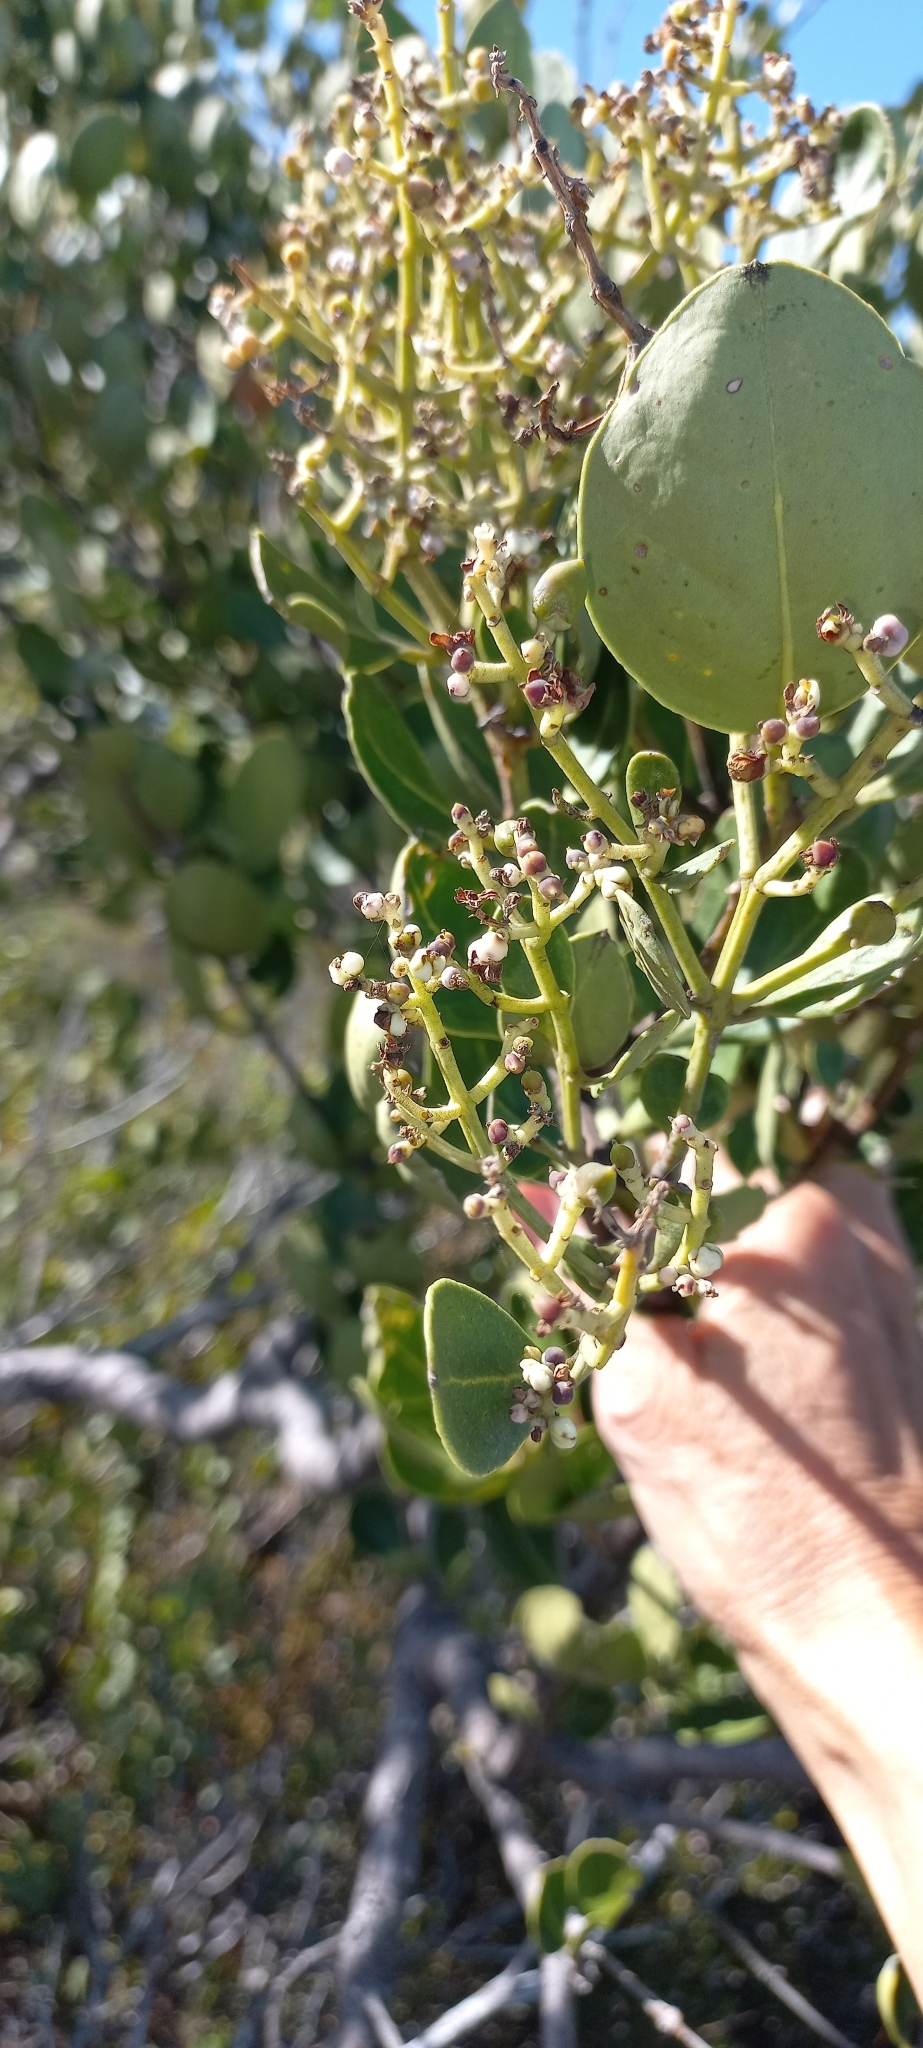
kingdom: Plantae
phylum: Tracheophyta
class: Magnoliopsida
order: Lamiales
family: Oleaceae
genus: Olea
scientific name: Olea capensis
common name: Black ironwood
